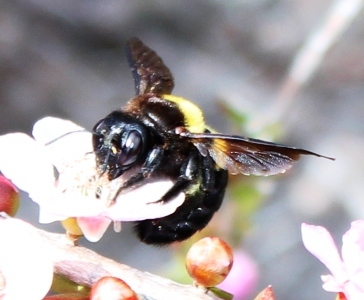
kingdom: Animalia
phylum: Arthropoda
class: Insecta
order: Hymenoptera
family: Apidae
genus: Xylocopa
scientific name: Xylocopa caffra
